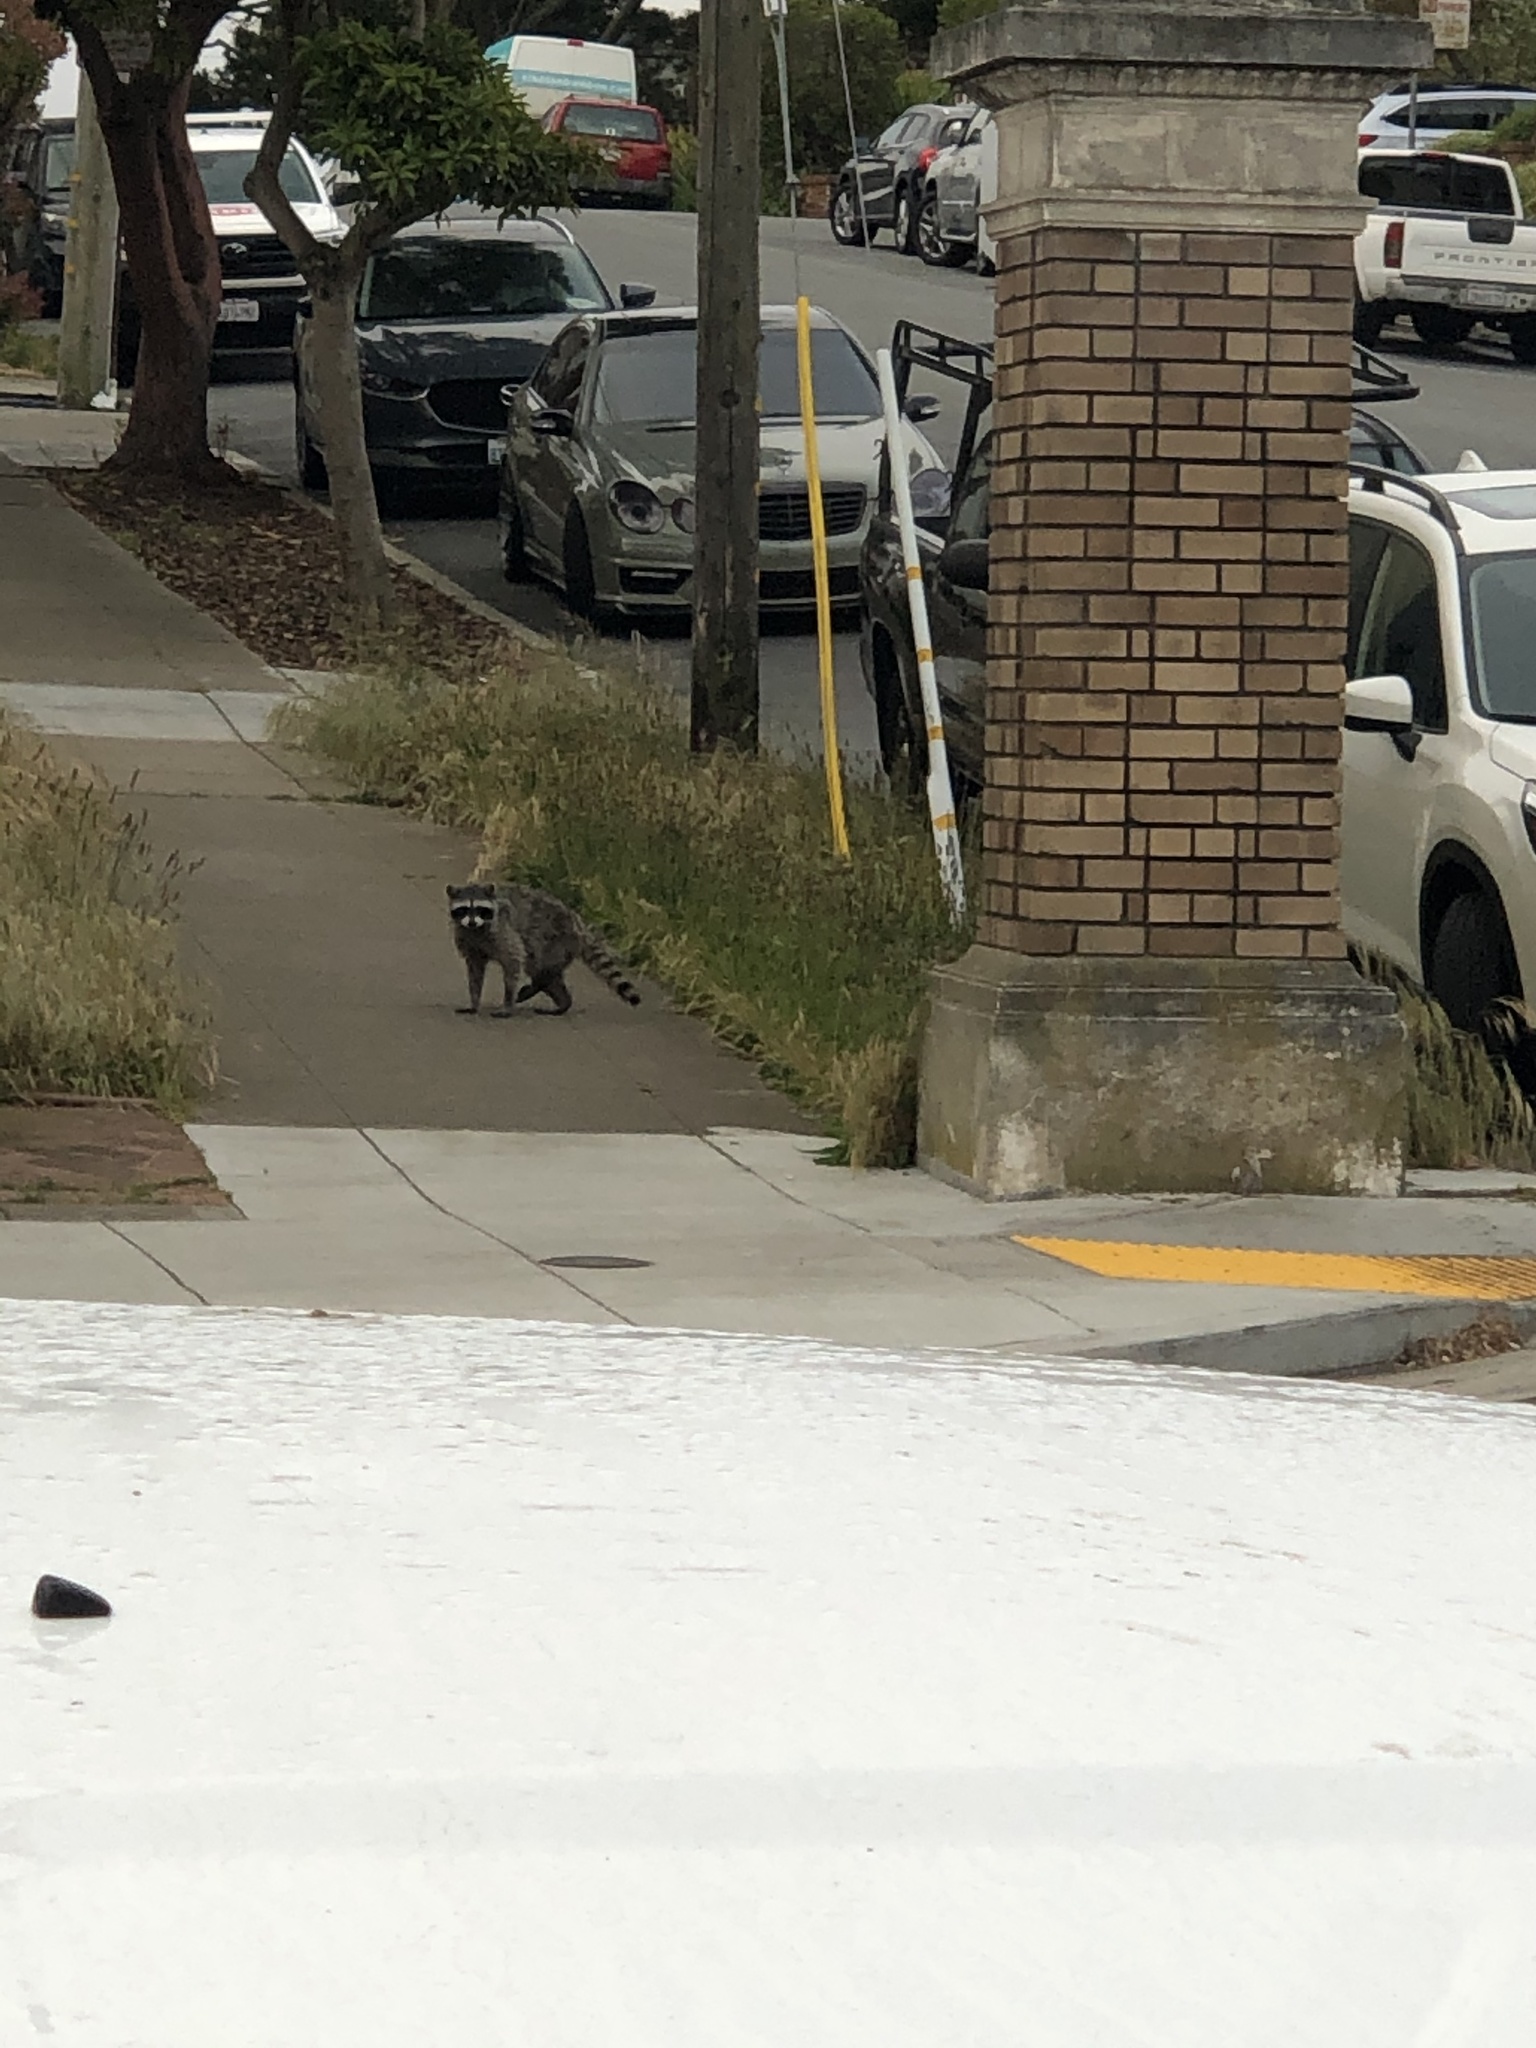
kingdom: Animalia
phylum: Chordata
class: Mammalia
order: Carnivora
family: Procyonidae
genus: Procyon
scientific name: Procyon lotor
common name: Raccoon
